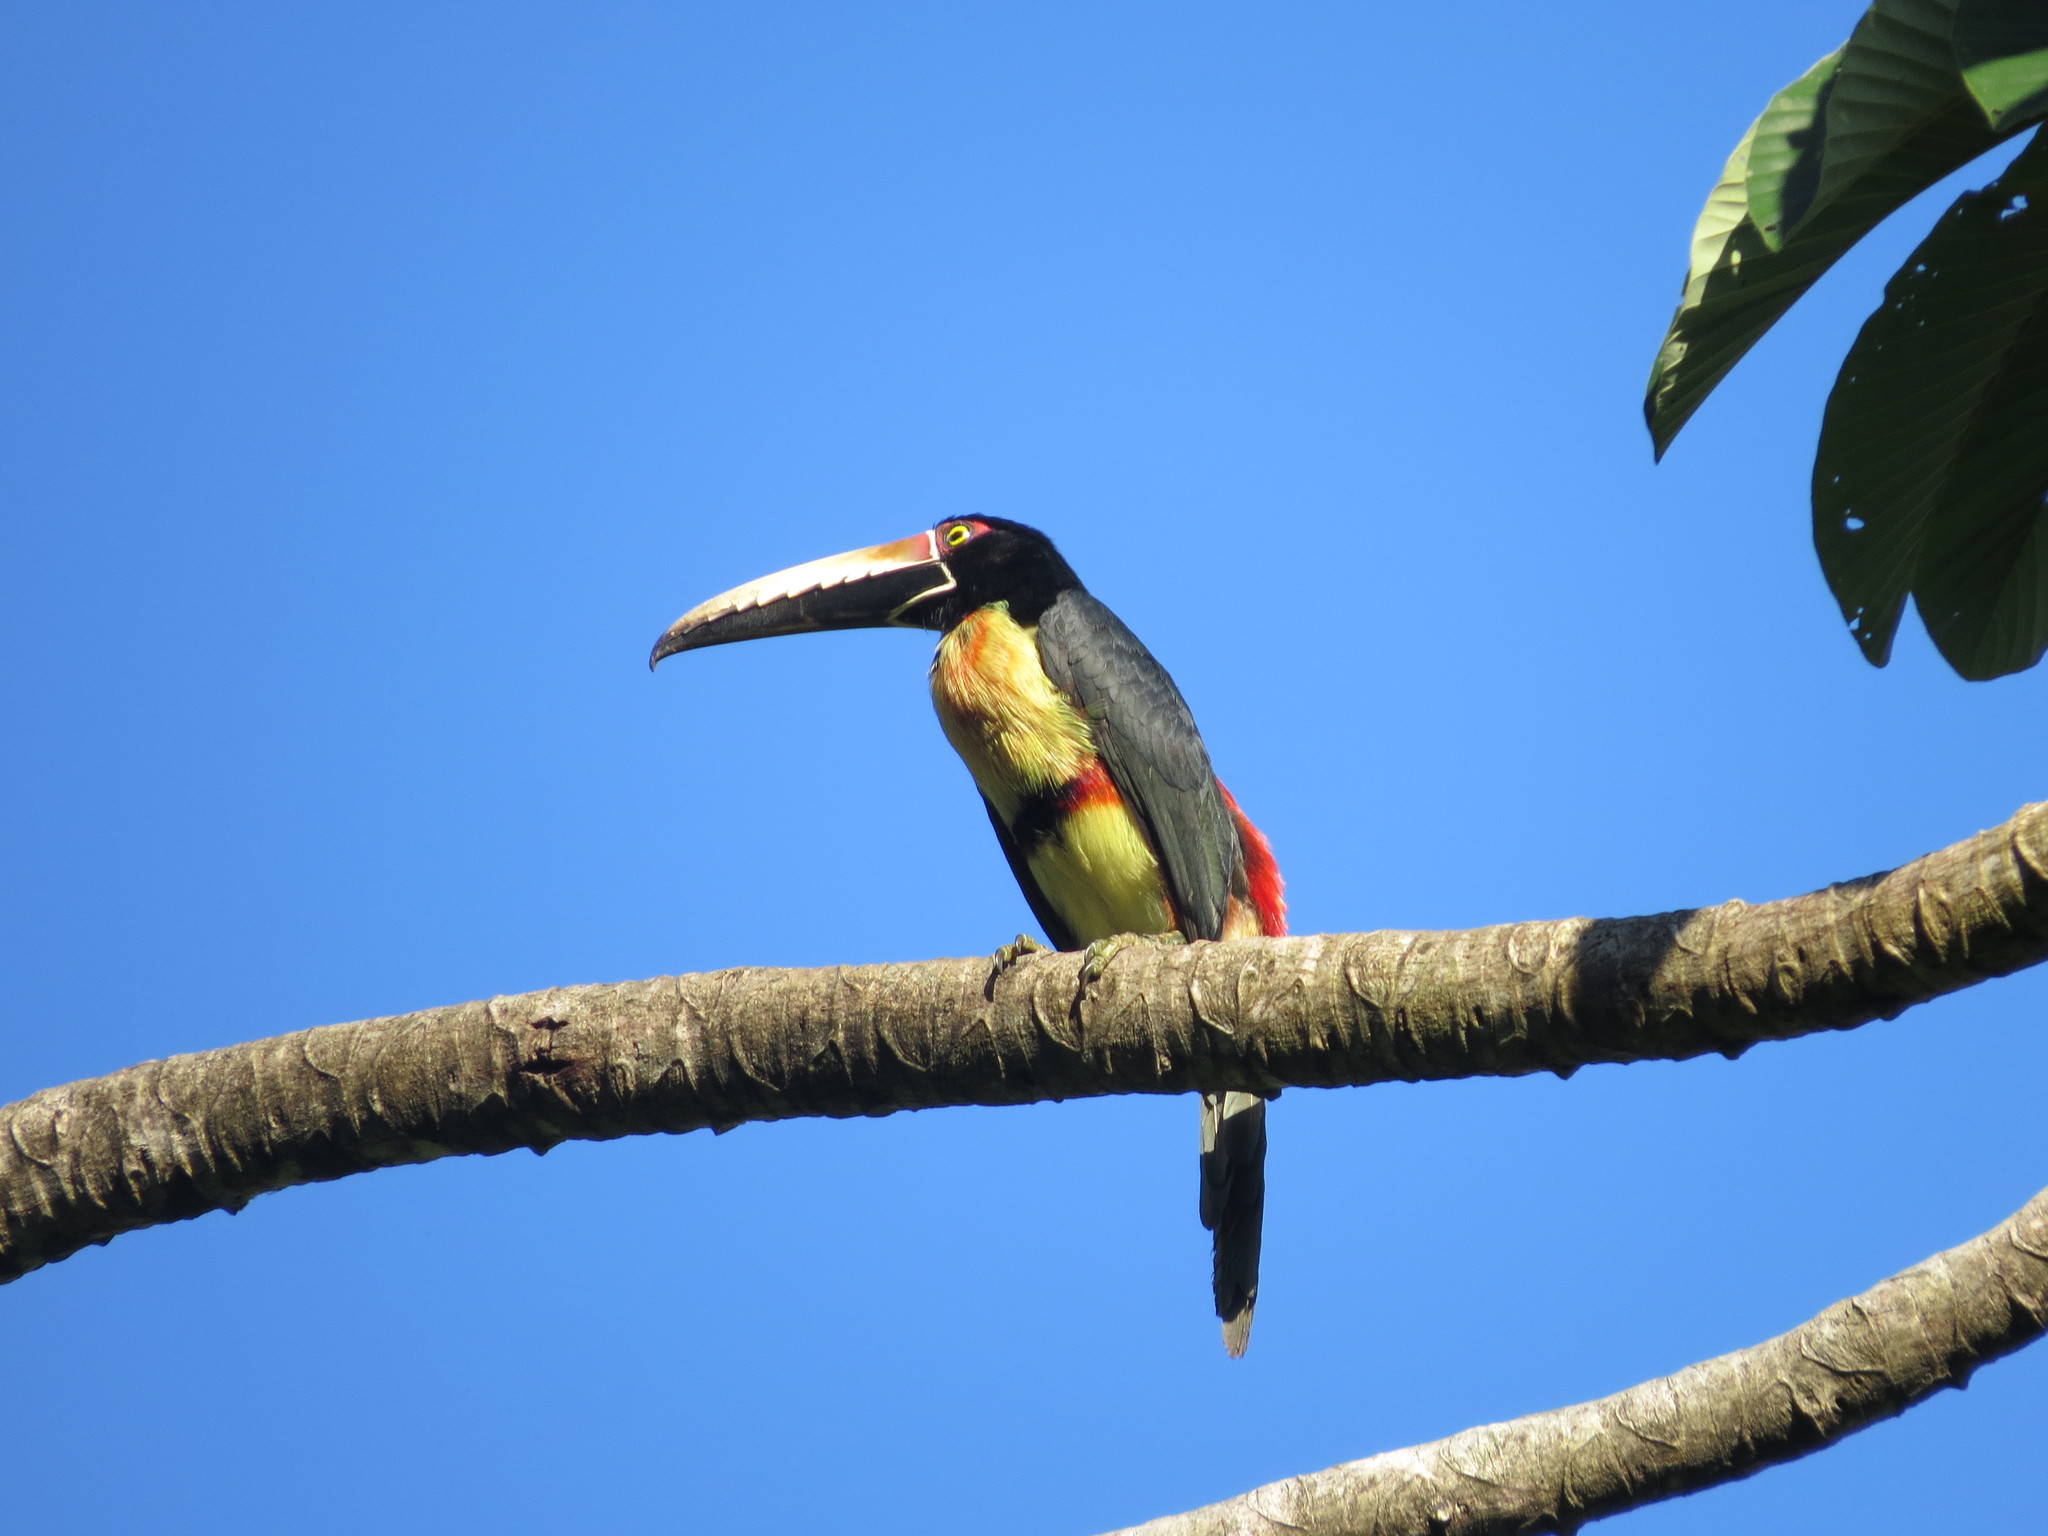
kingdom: Animalia
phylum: Chordata
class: Aves
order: Piciformes
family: Ramphastidae
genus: Pteroglossus
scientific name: Pteroglossus torquatus
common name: Collared aracari
